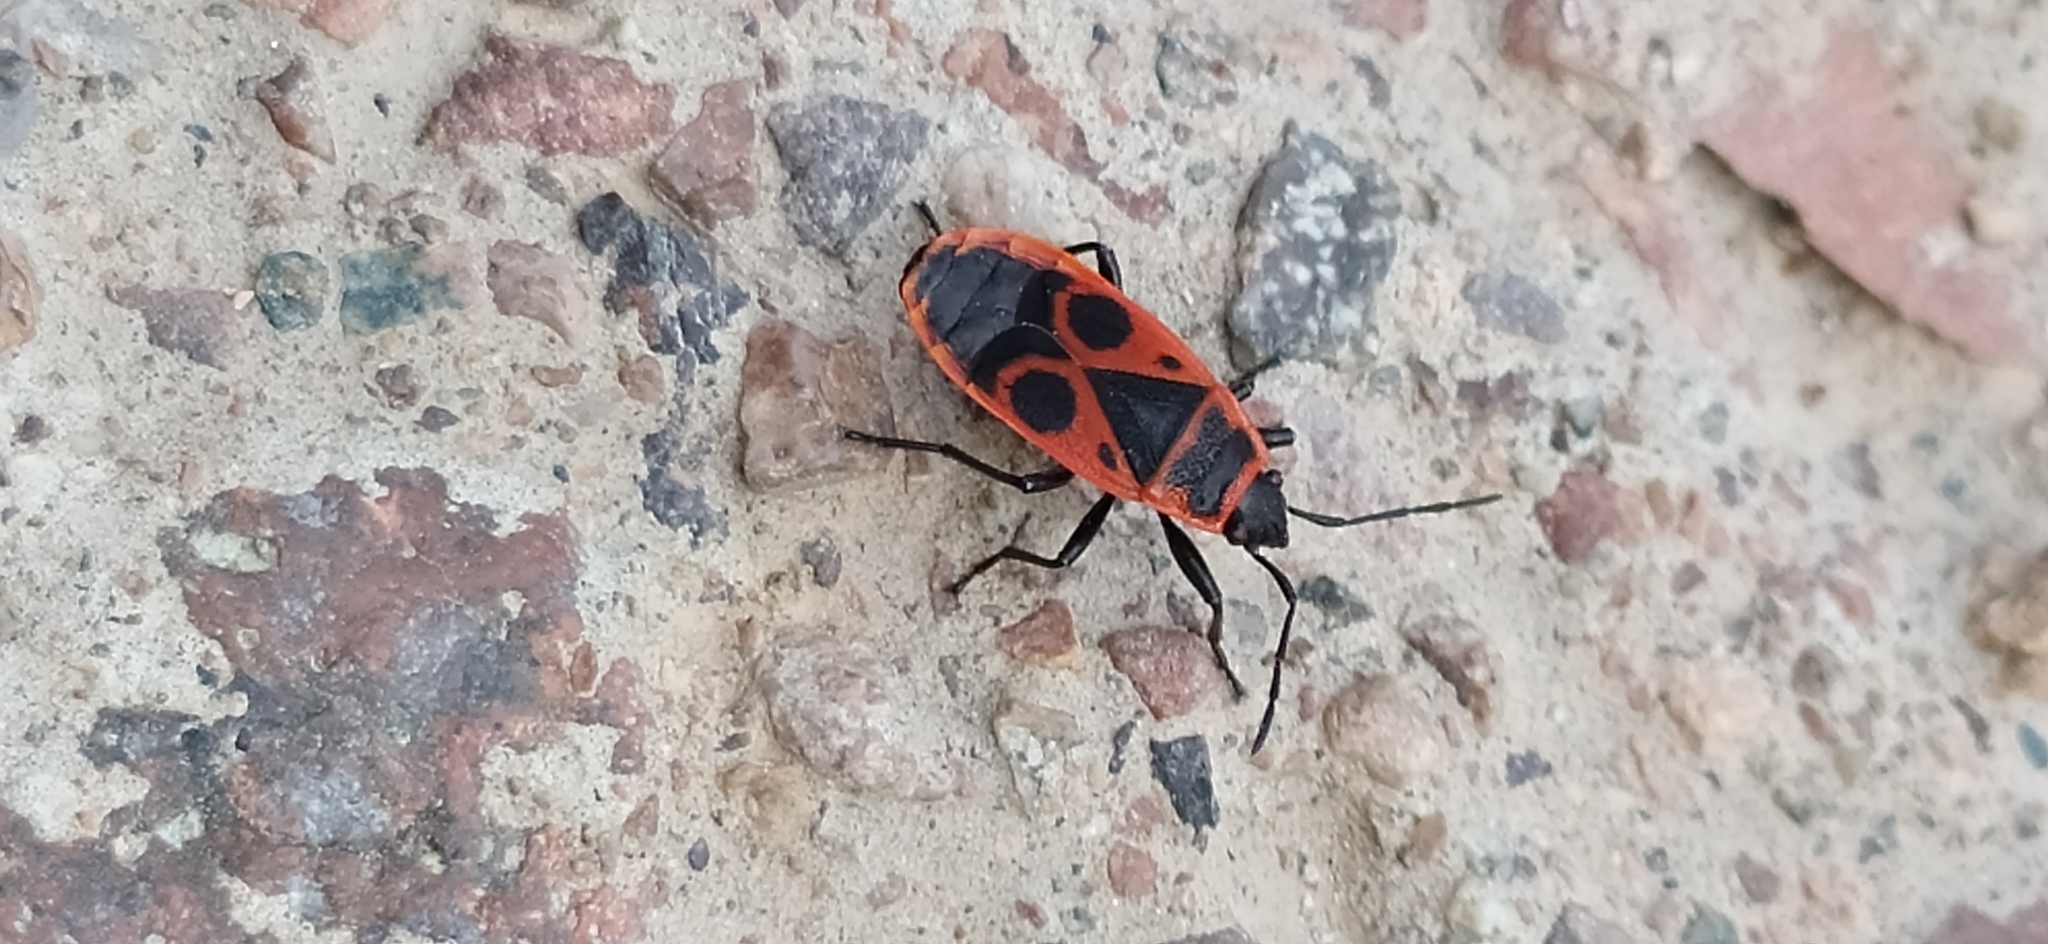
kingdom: Animalia
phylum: Arthropoda
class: Insecta
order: Hemiptera
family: Pyrrhocoridae
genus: Pyrrhocoris
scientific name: Pyrrhocoris apterus
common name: Firebug
